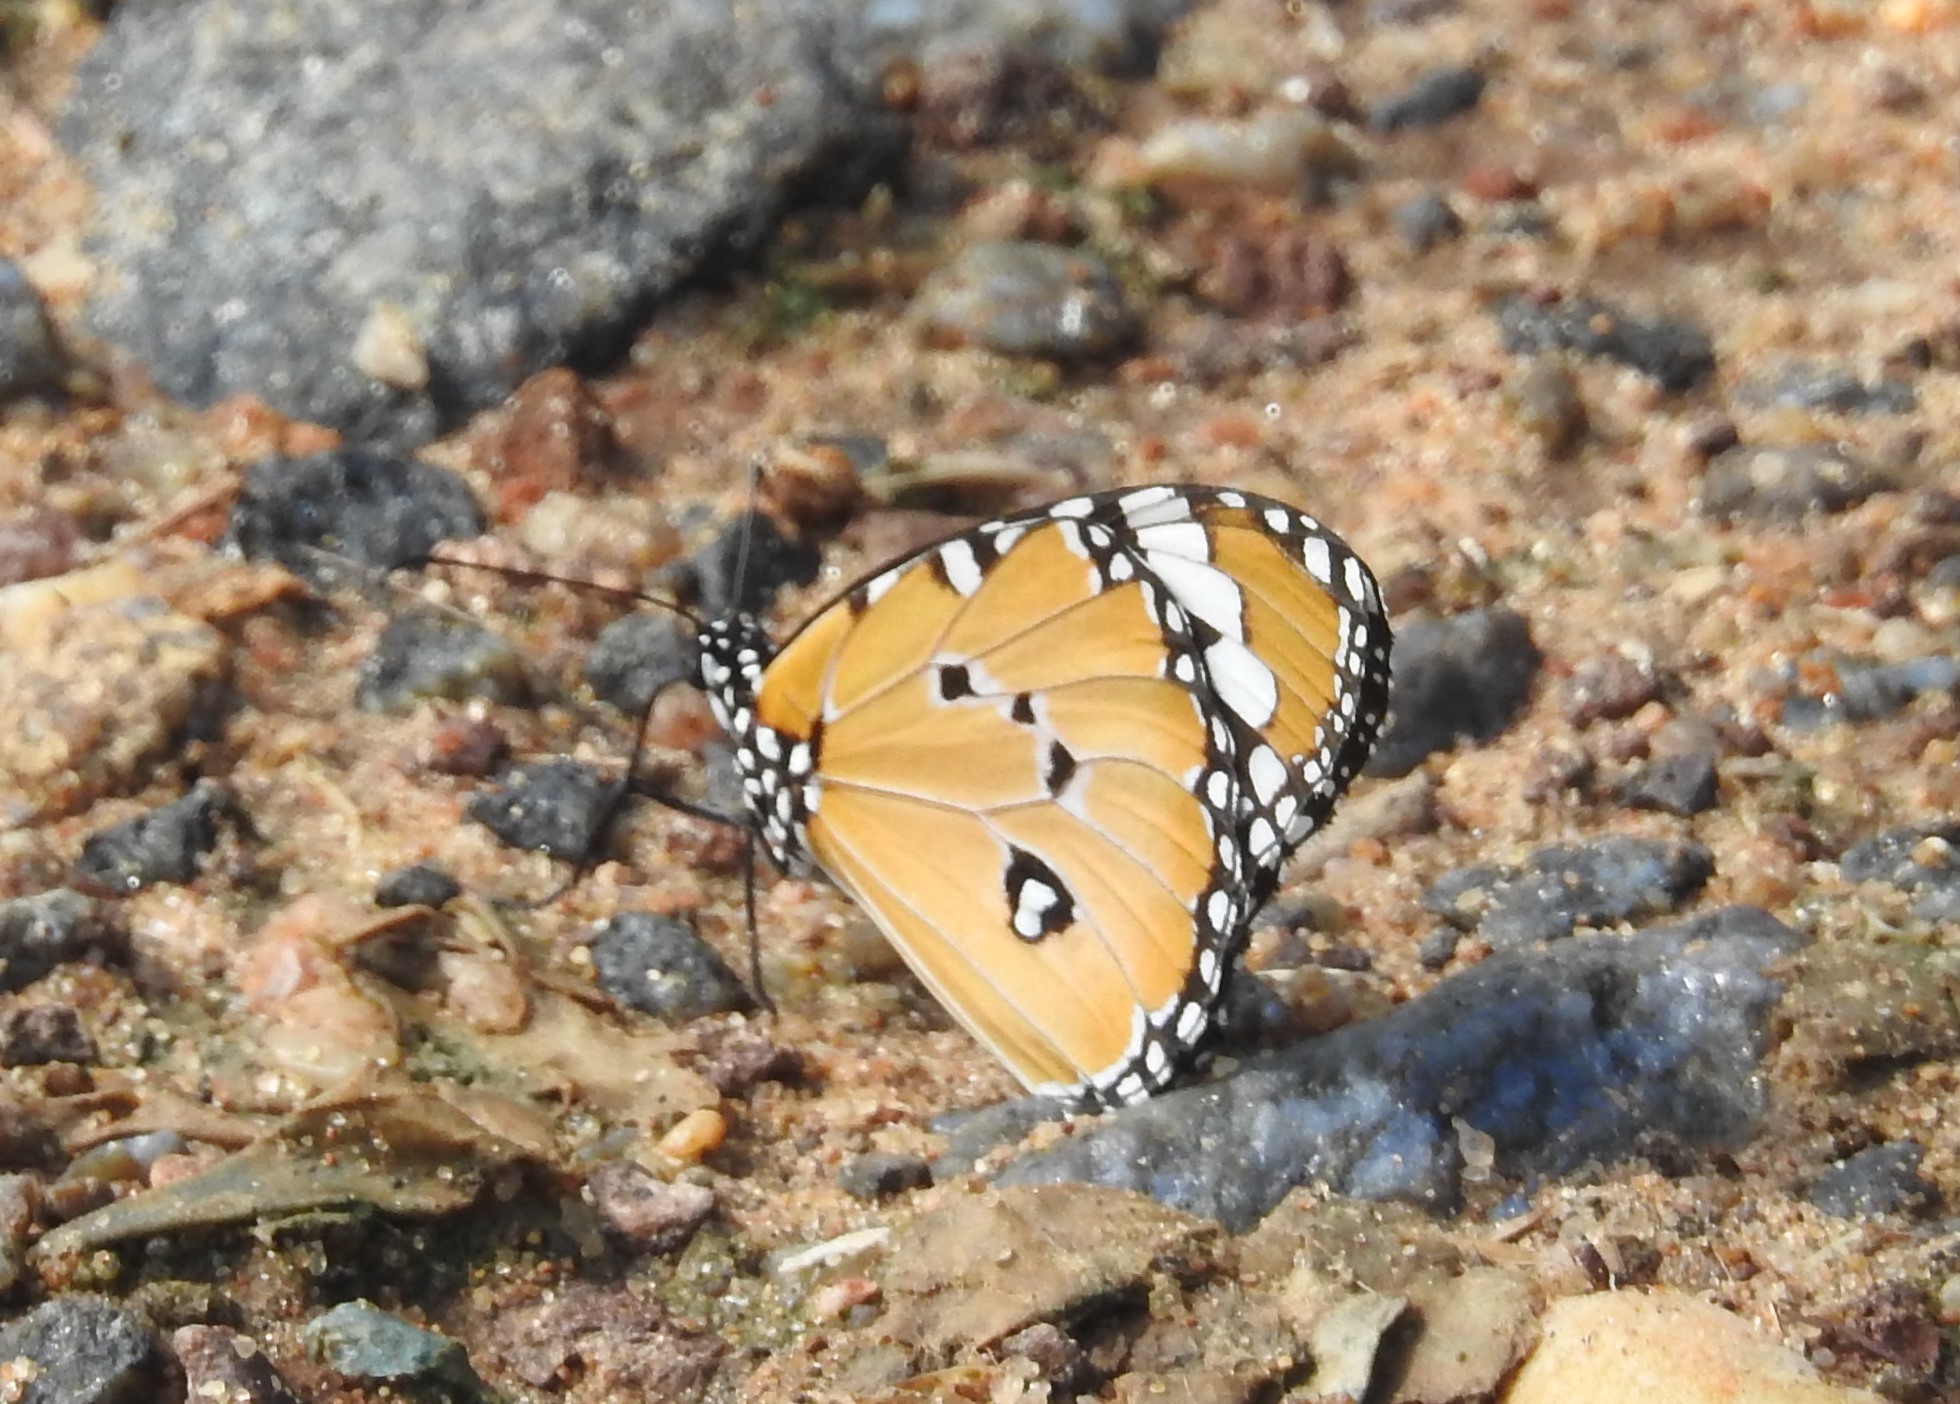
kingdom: Animalia
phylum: Arthropoda
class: Insecta
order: Lepidoptera
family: Nymphalidae
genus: Danaus
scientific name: Danaus chrysippus
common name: Plain tiger
